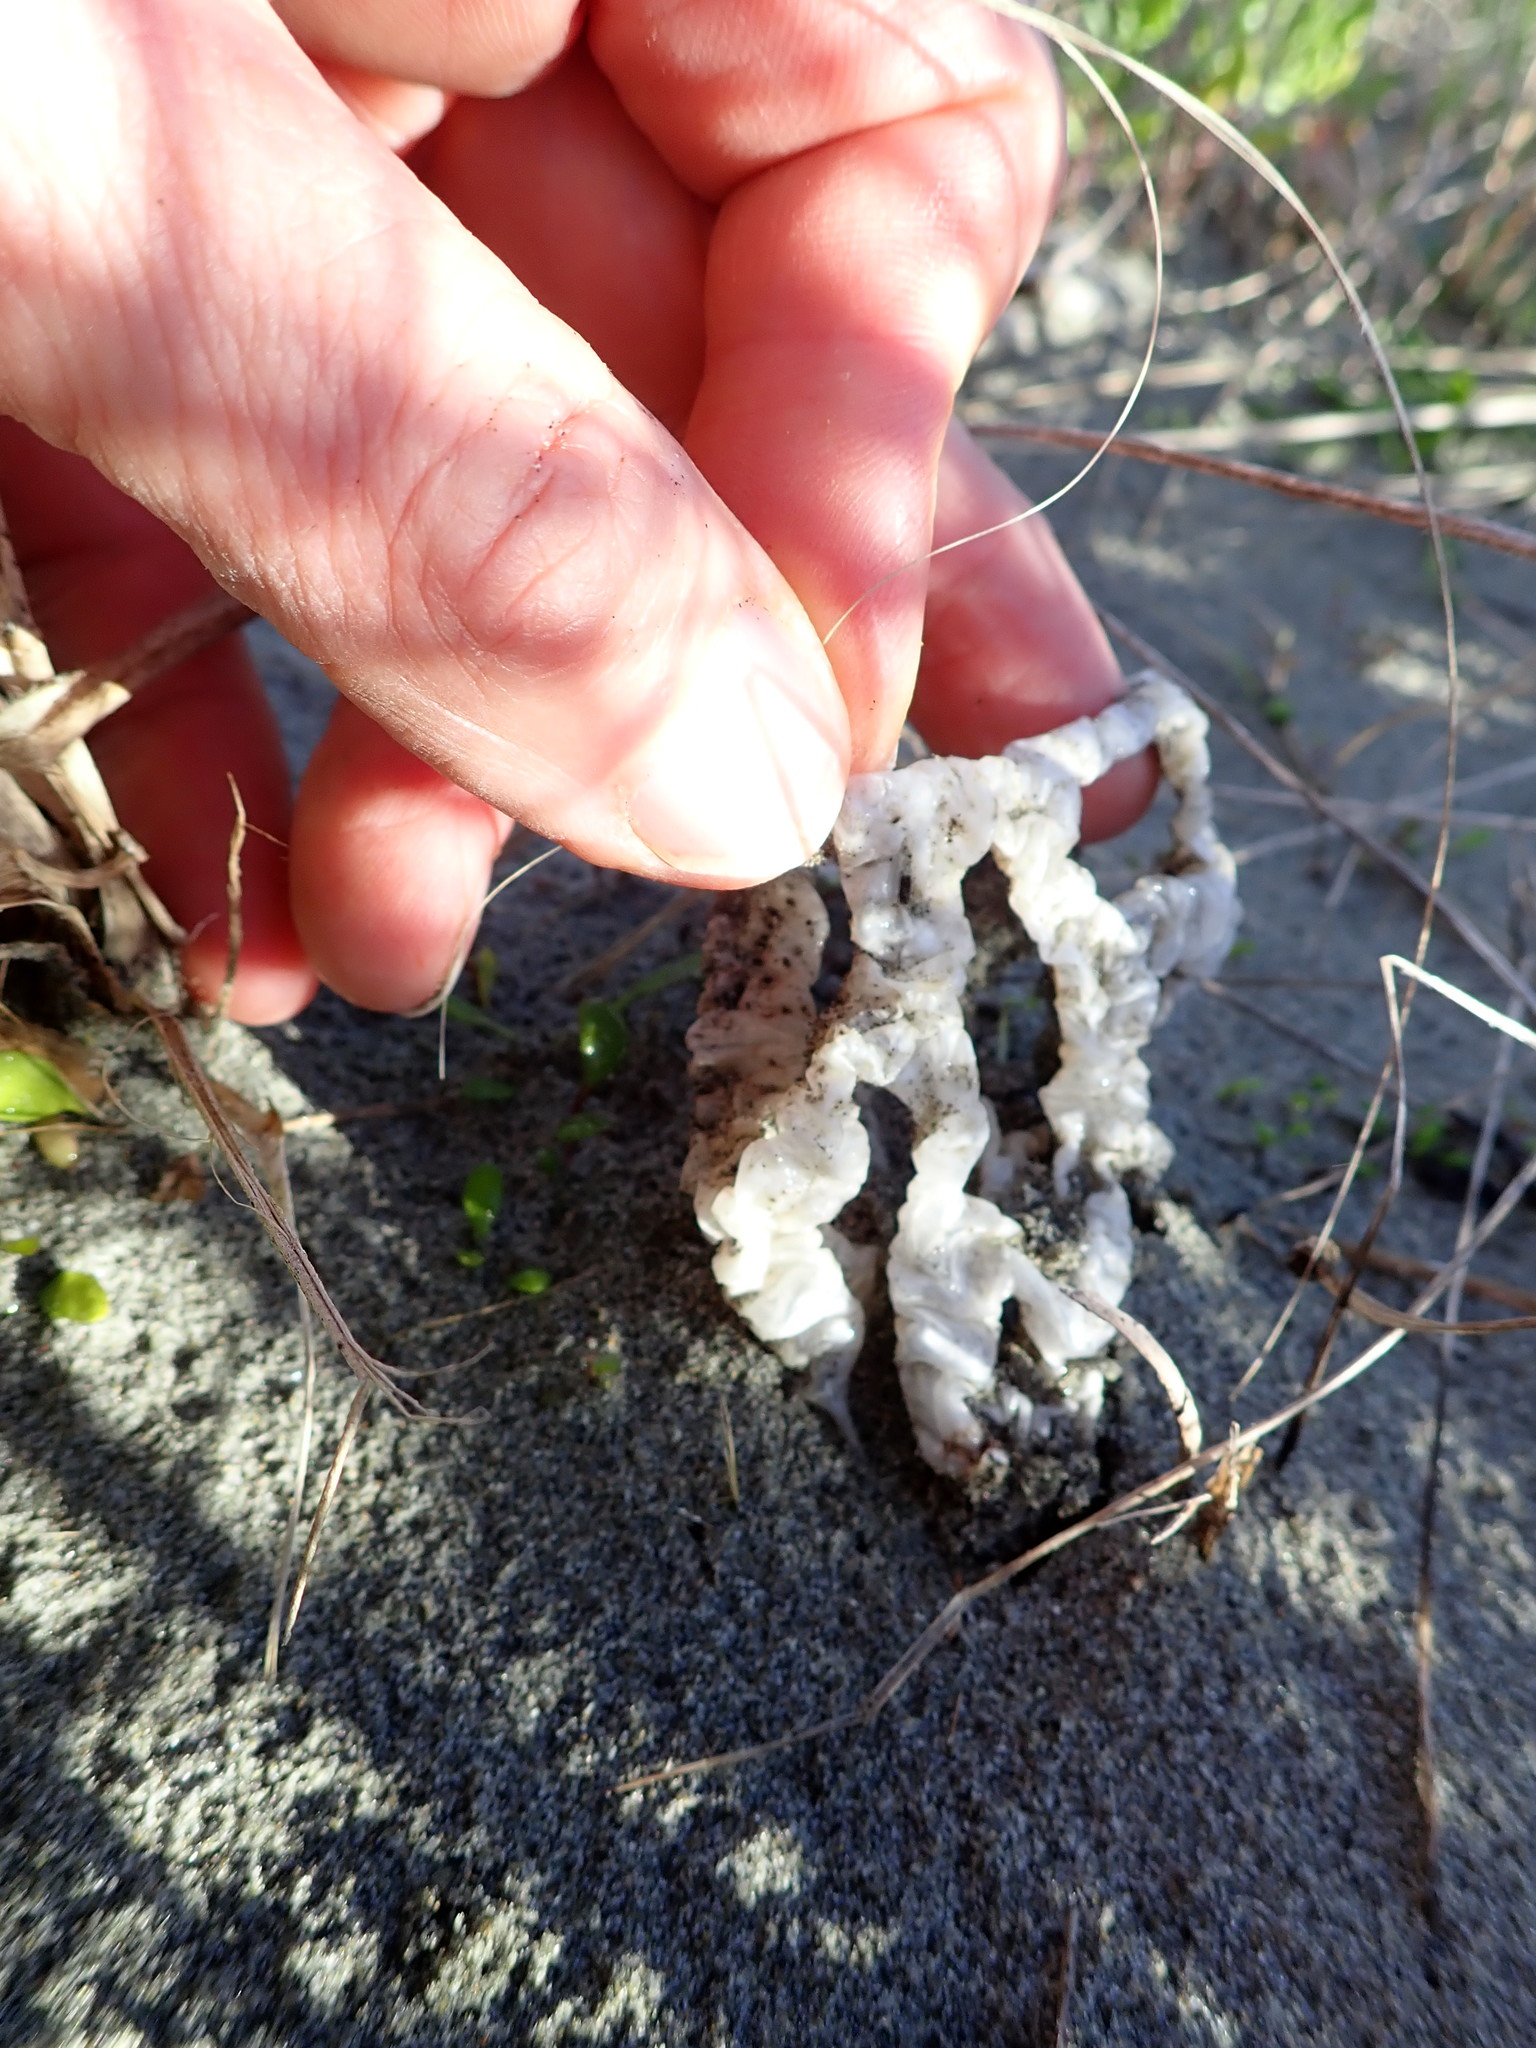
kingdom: Fungi
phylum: Basidiomycota
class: Agaricomycetes
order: Phallales
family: Phallaceae
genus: Ileodictyon
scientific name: Ileodictyon cibarium
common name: Basket fungus
